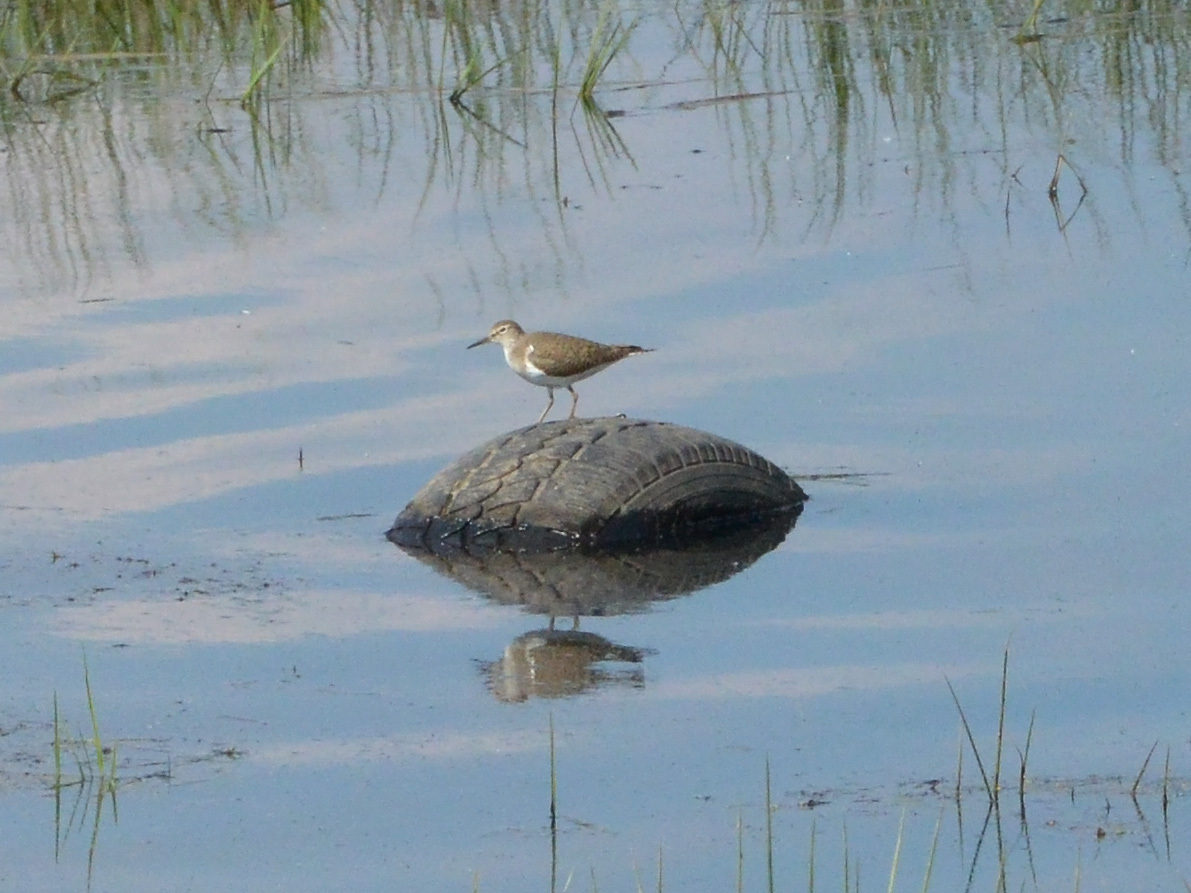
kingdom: Animalia
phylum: Chordata
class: Aves
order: Charadriiformes
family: Scolopacidae
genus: Actitis
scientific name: Actitis hypoleucos
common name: Common sandpiper
